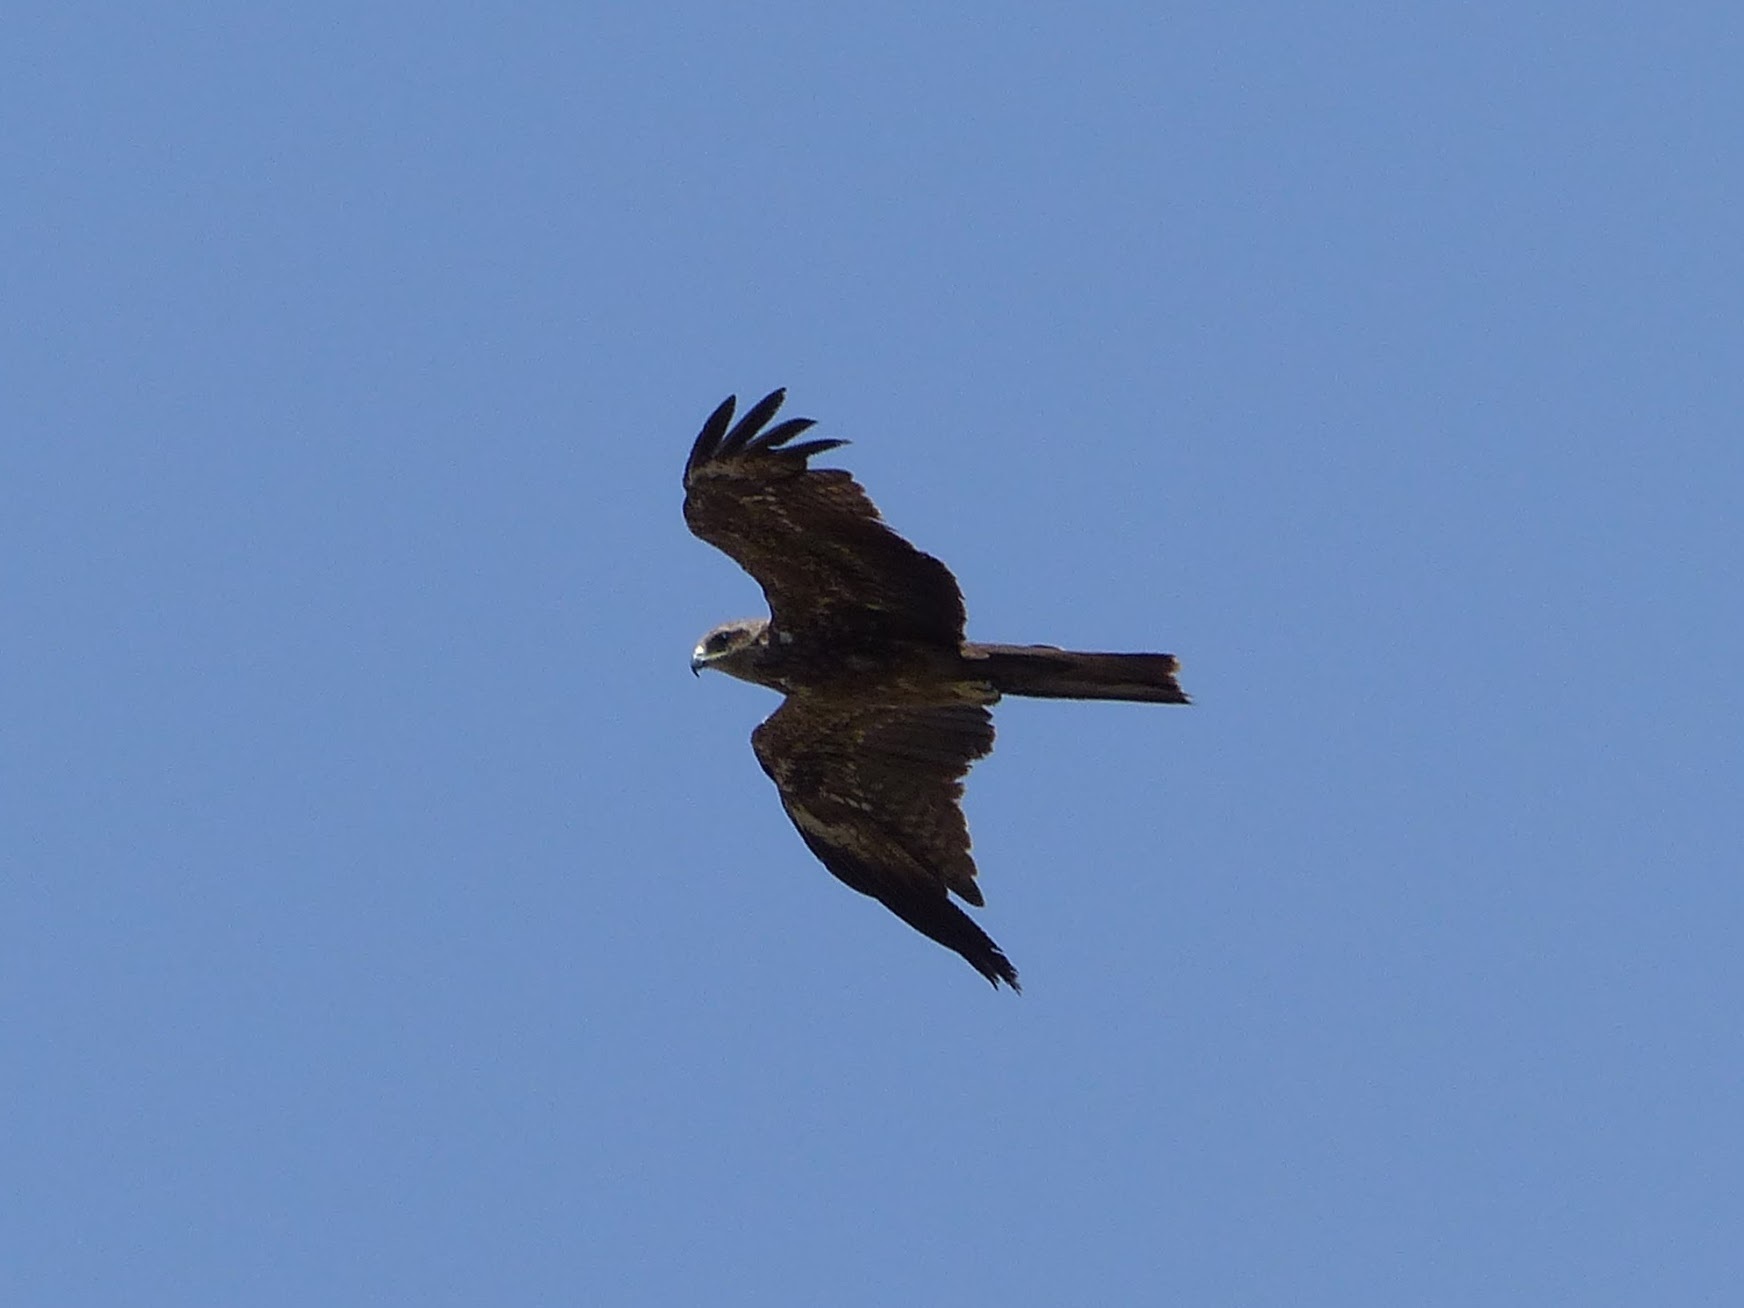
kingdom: Animalia
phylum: Chordata
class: Aves
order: Accipitriformes
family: Accipitridae
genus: Milvus
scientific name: Milvus migrans
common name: Black kite
